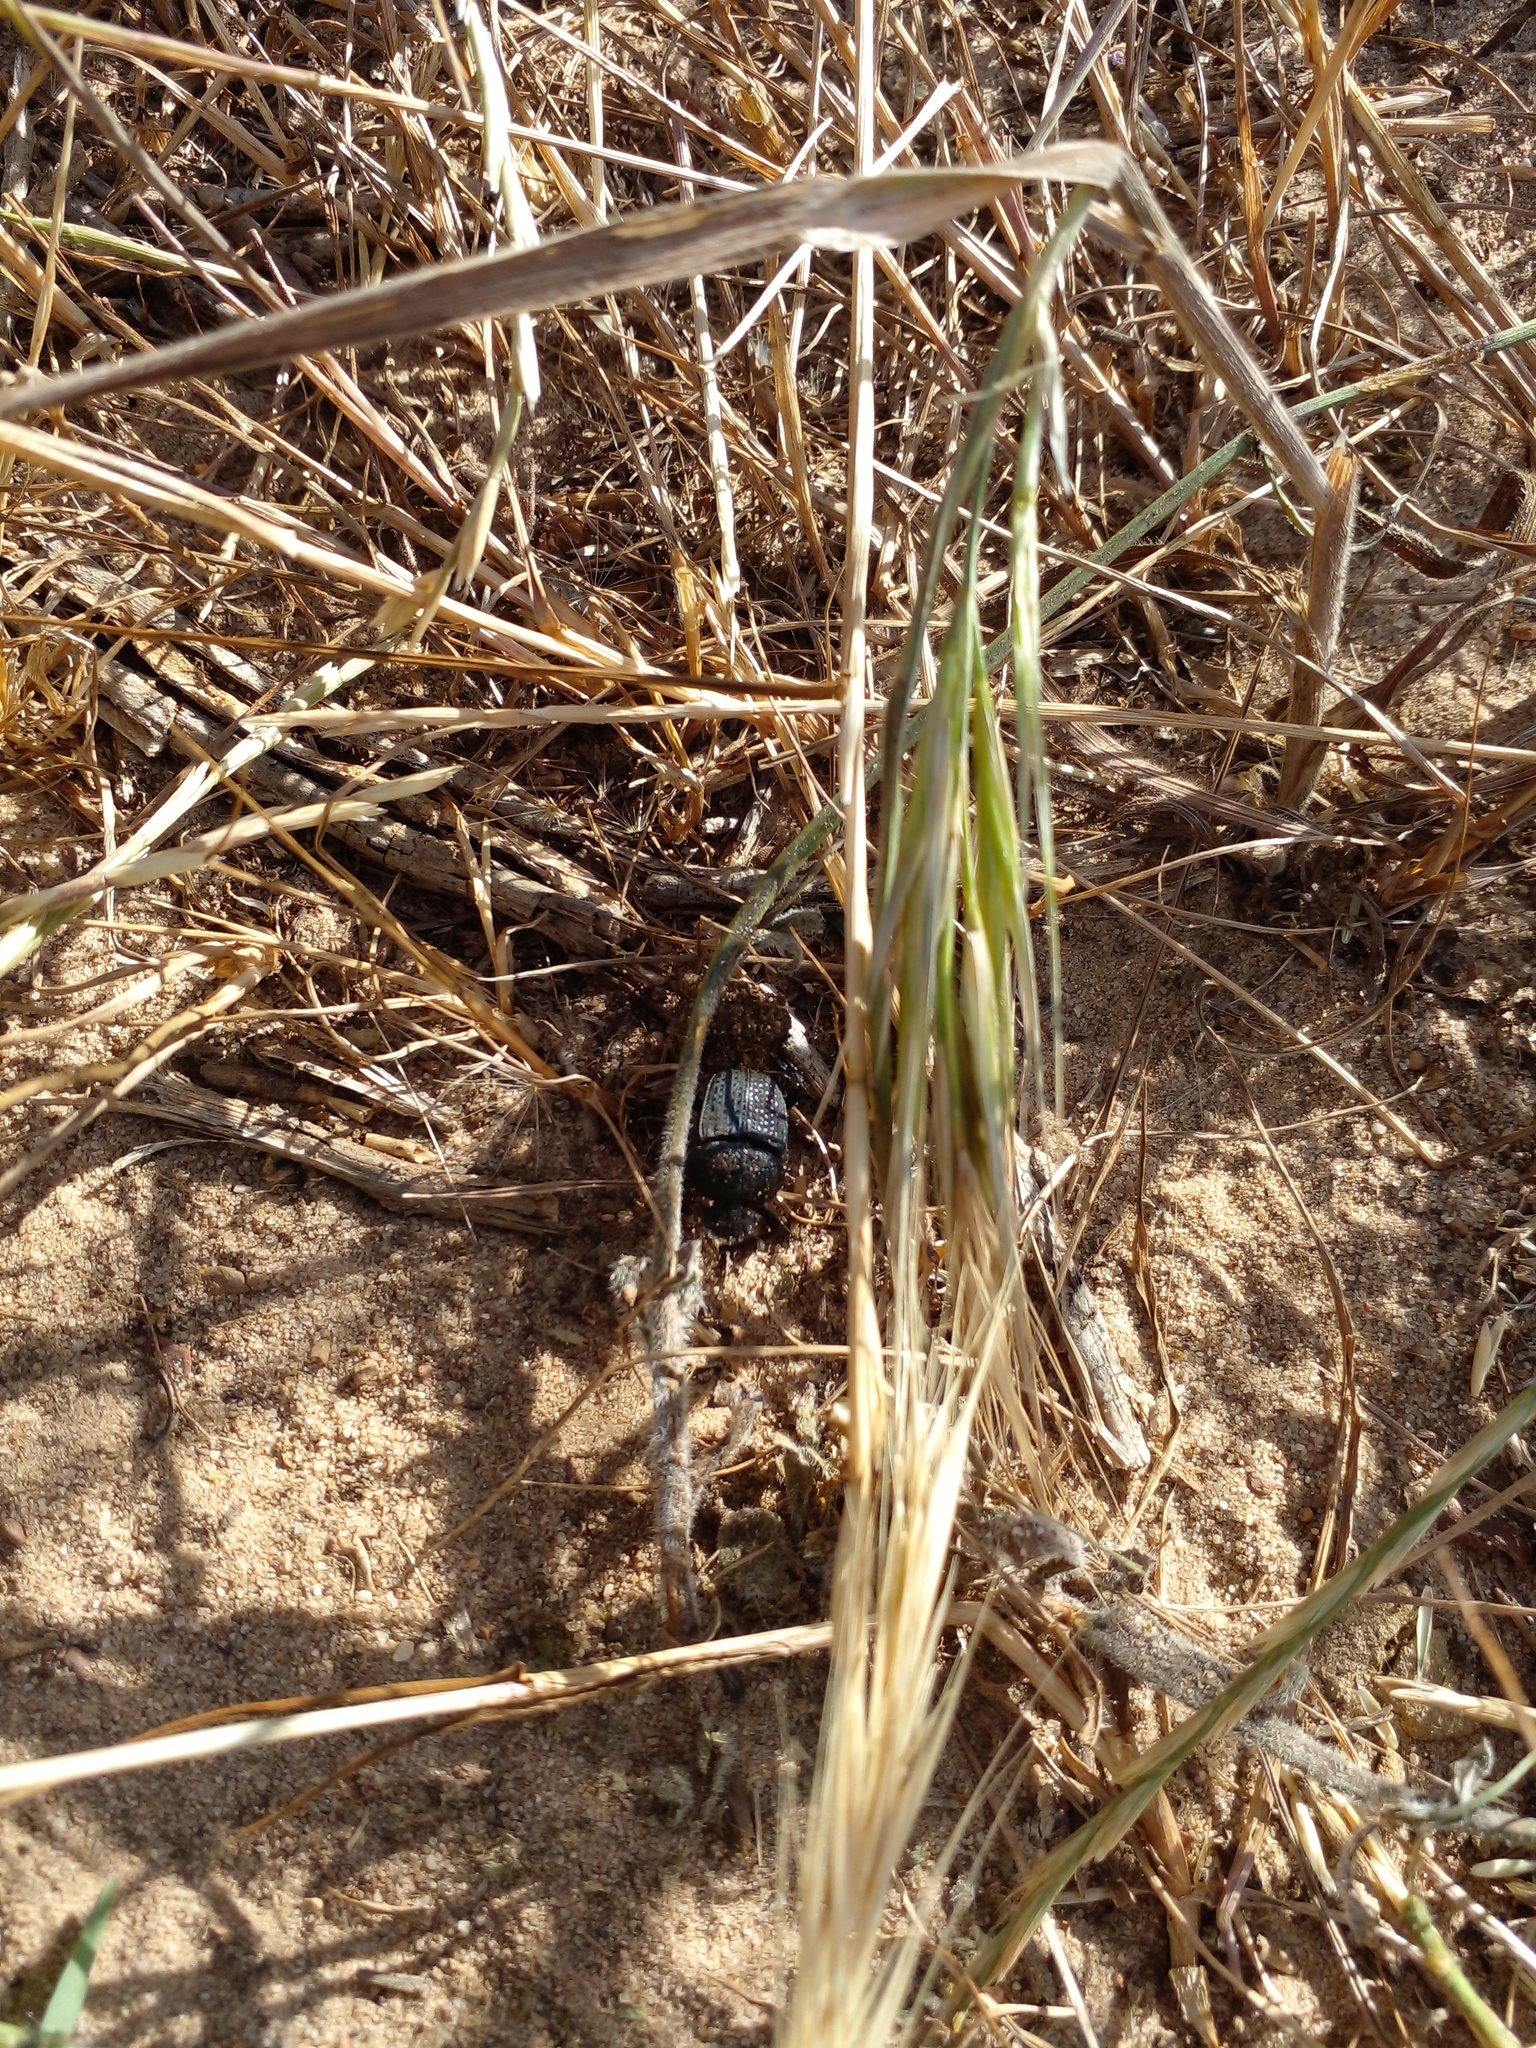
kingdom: Animalia
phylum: Arthropoda
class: Insecta
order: Coleoptera
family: Scarabaeidae
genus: Scarabaeolus
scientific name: Scarabaeolus intricatus
